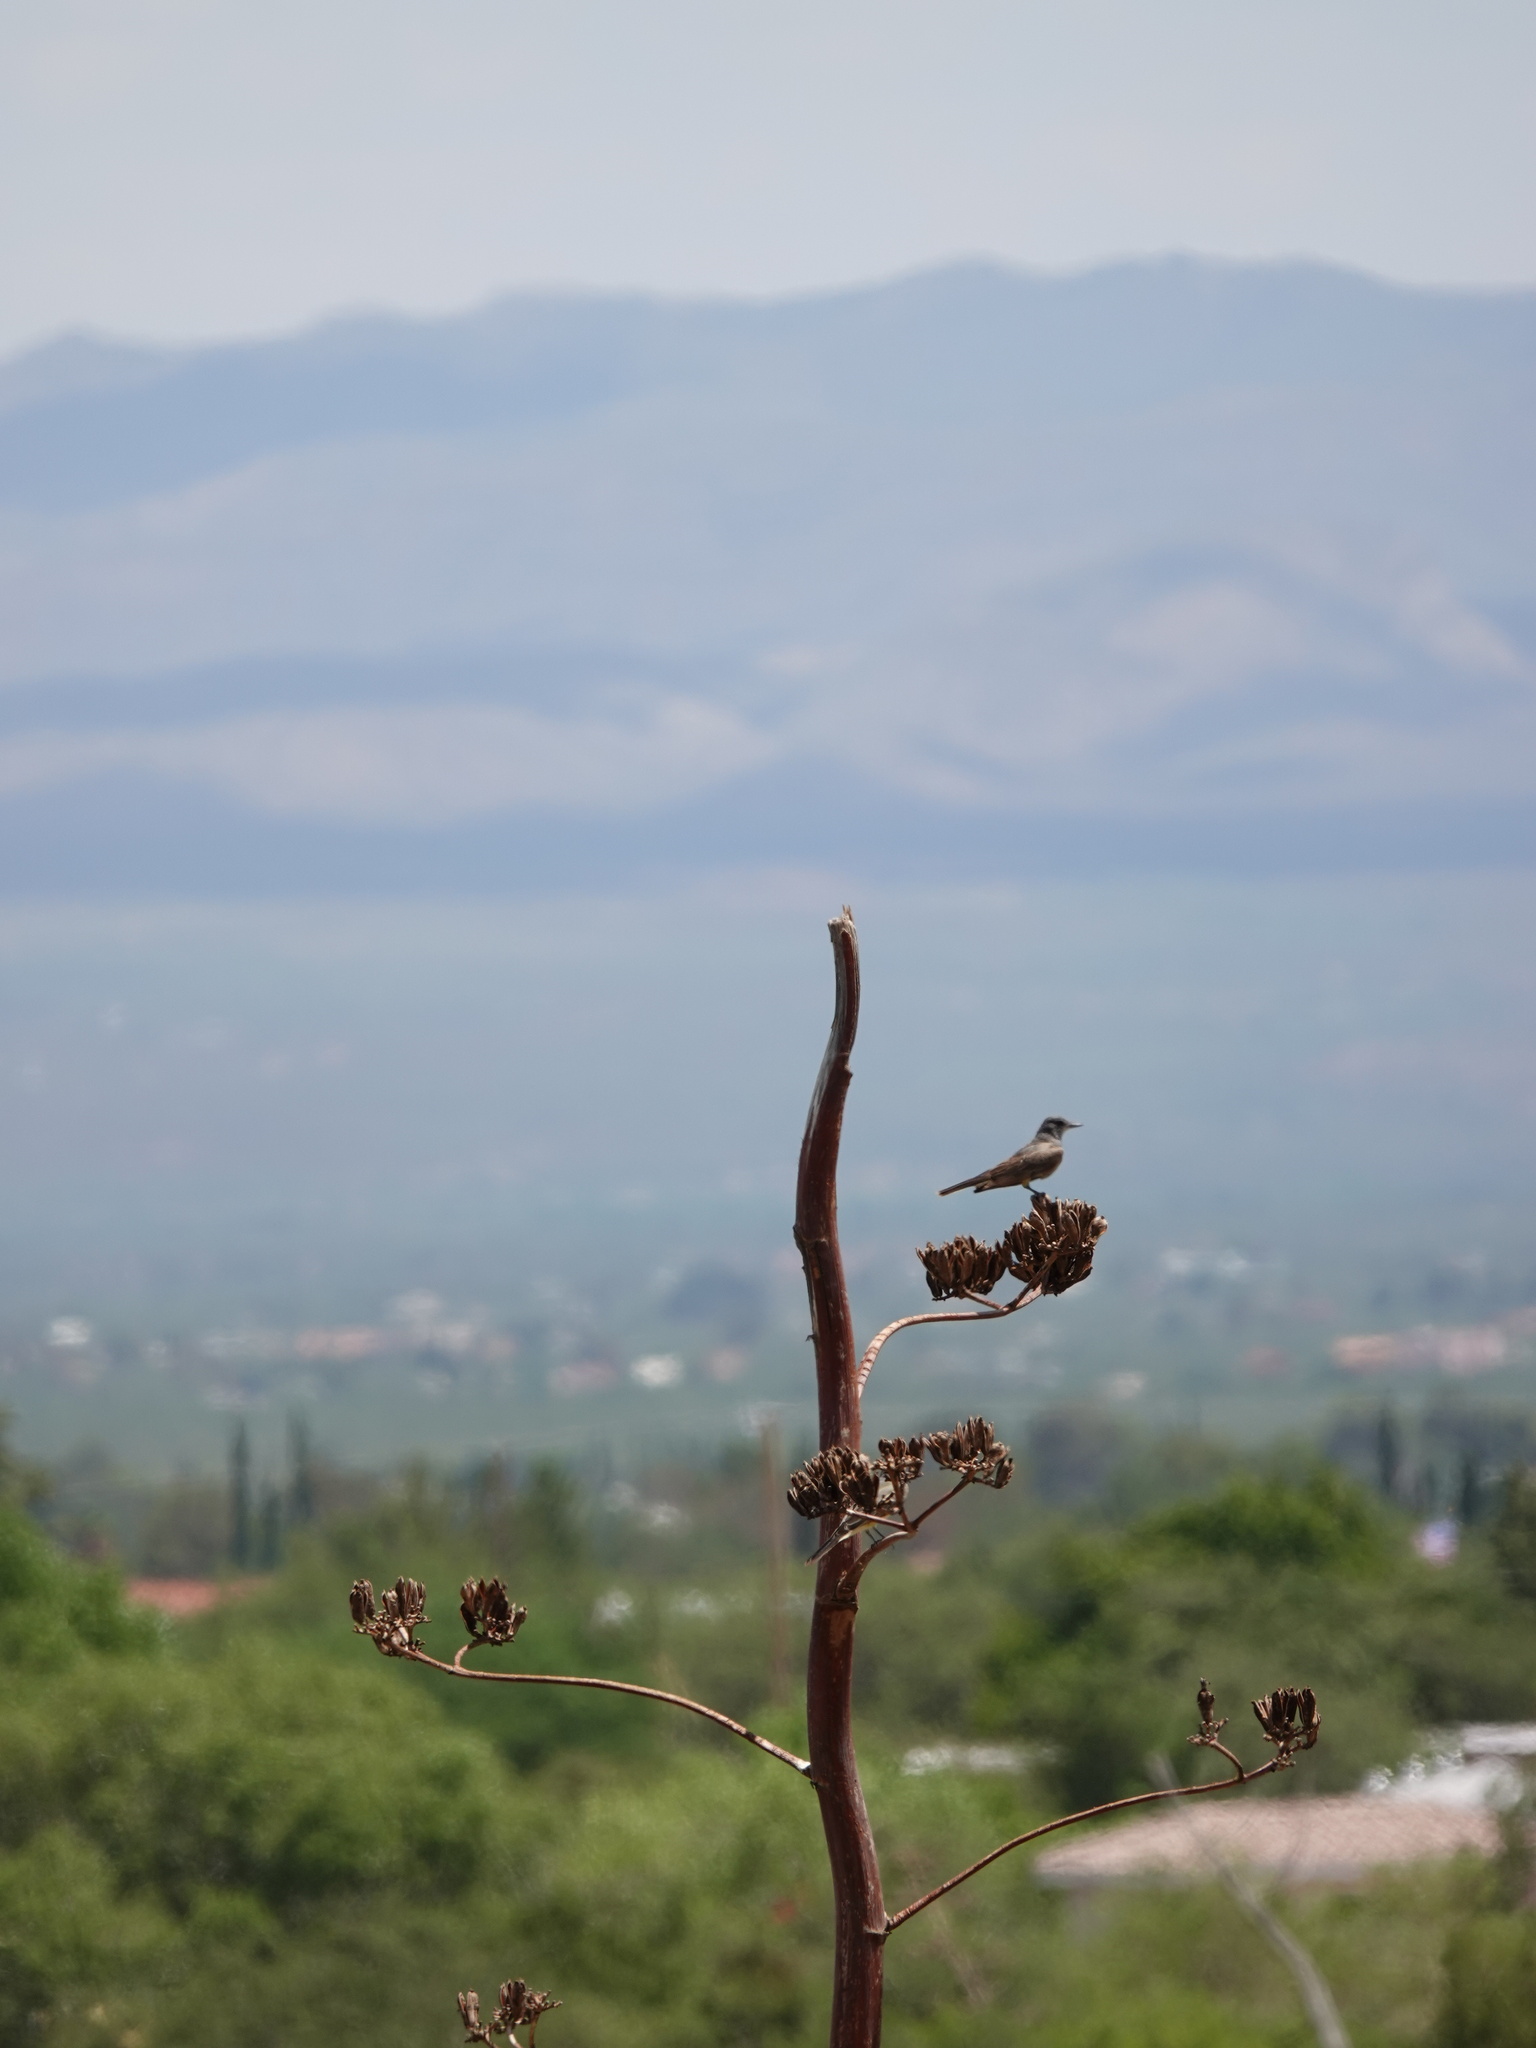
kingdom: Animalia
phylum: Chordata
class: Aves
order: Passeriformes
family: Tyrannidae
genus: Tyrannus
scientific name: Tyrannus vociferans
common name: Cassin's kingbird
